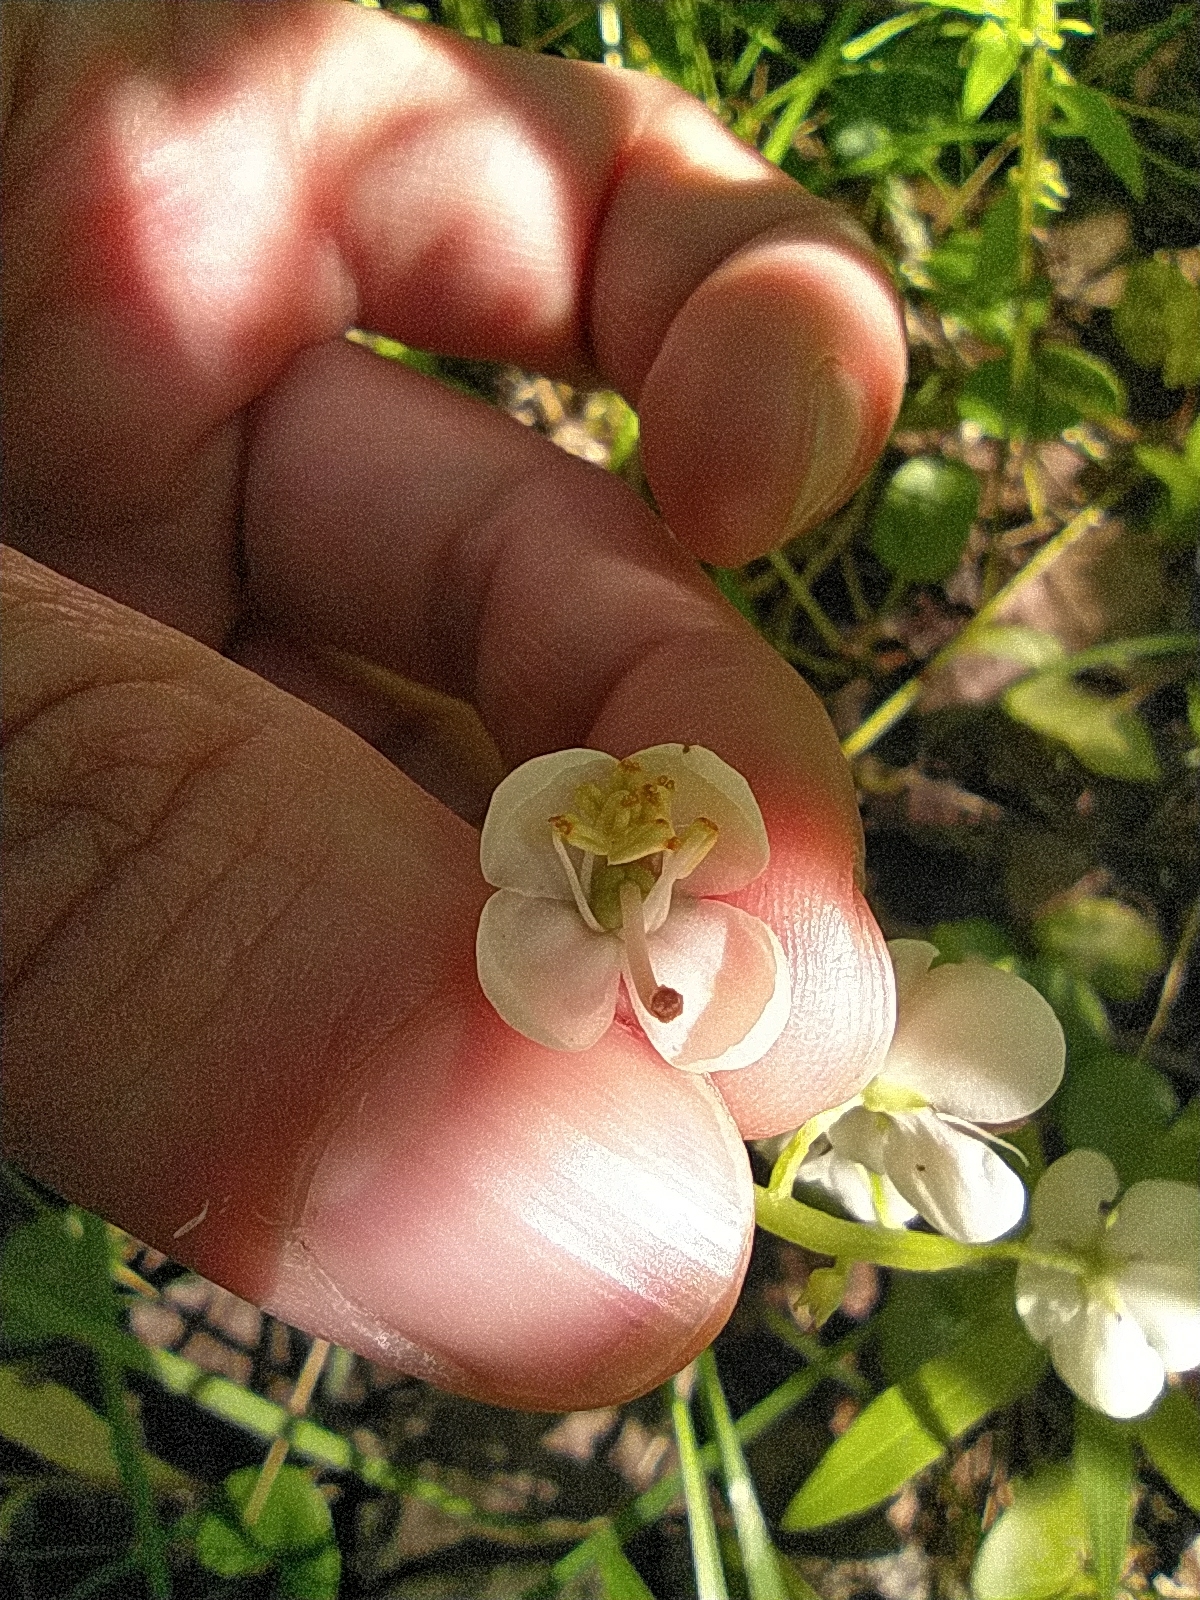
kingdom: Plantae
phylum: Tracheophyta
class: Magnoliopsida
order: Ericales
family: Ericaceae
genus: Pyrola
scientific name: Pyrola rotundifolia
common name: Round-leaved wintergreen
